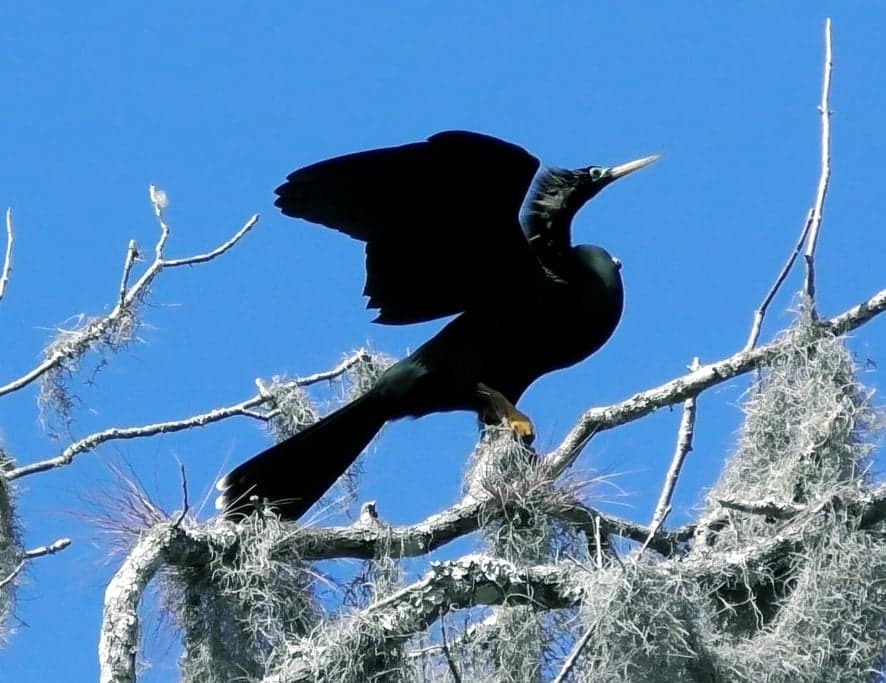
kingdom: Animalia
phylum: Chordata
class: Aves
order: Suliformes
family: Anhingidae
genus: Anhinga
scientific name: Anhinga anhinga
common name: Anhinga
